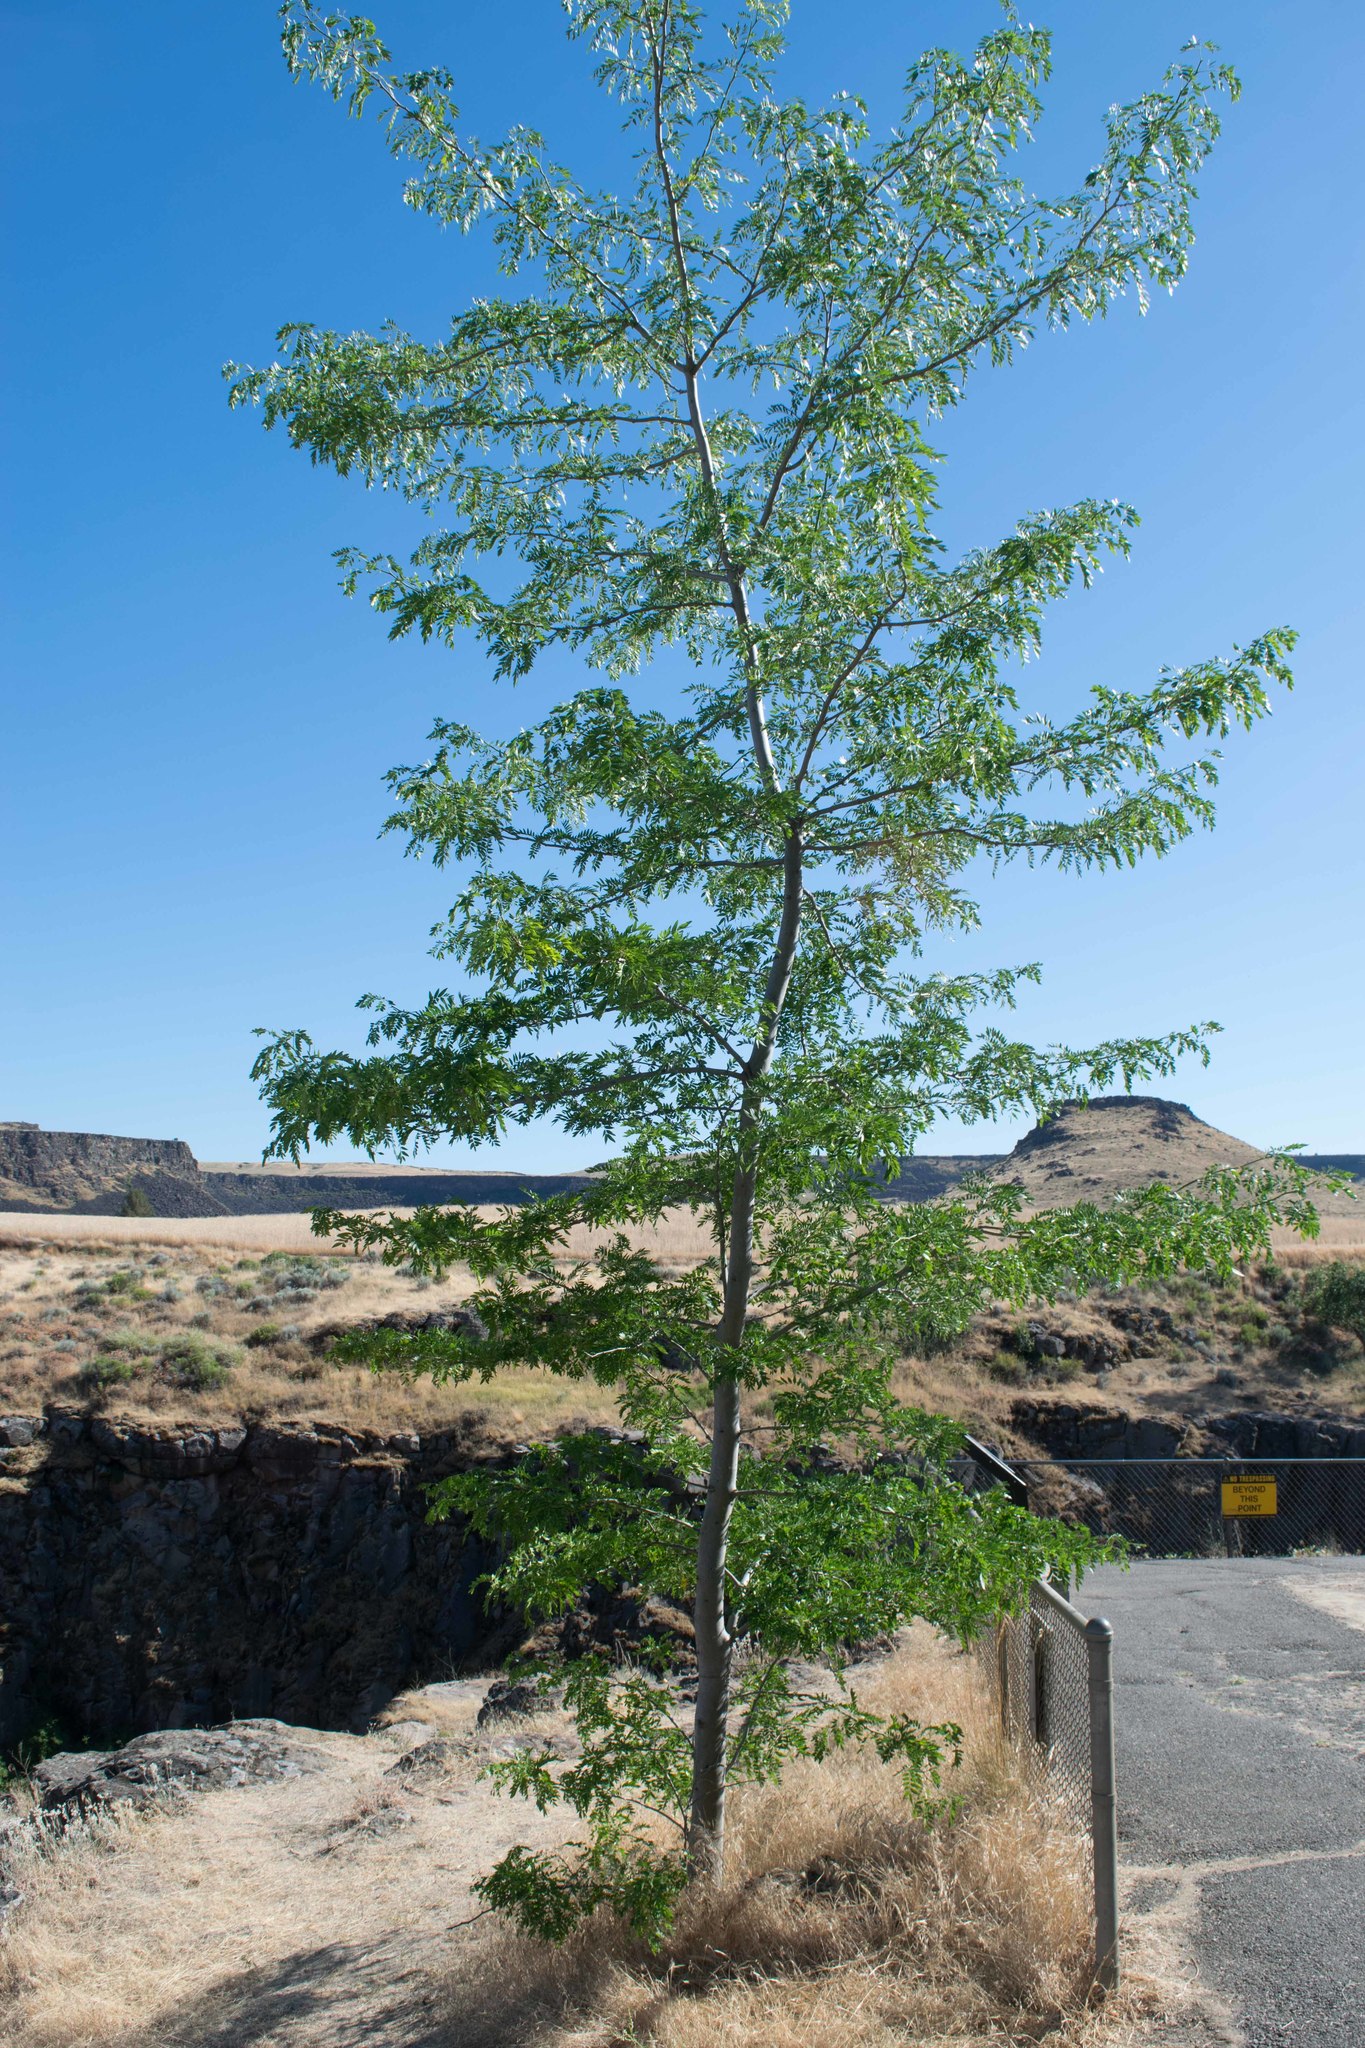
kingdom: Plantae
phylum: Tracheophyta
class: Magnoliopsida
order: Fabales
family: Fabaceae
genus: Robinia
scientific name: Robinia pseudoacacia
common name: Black locust
